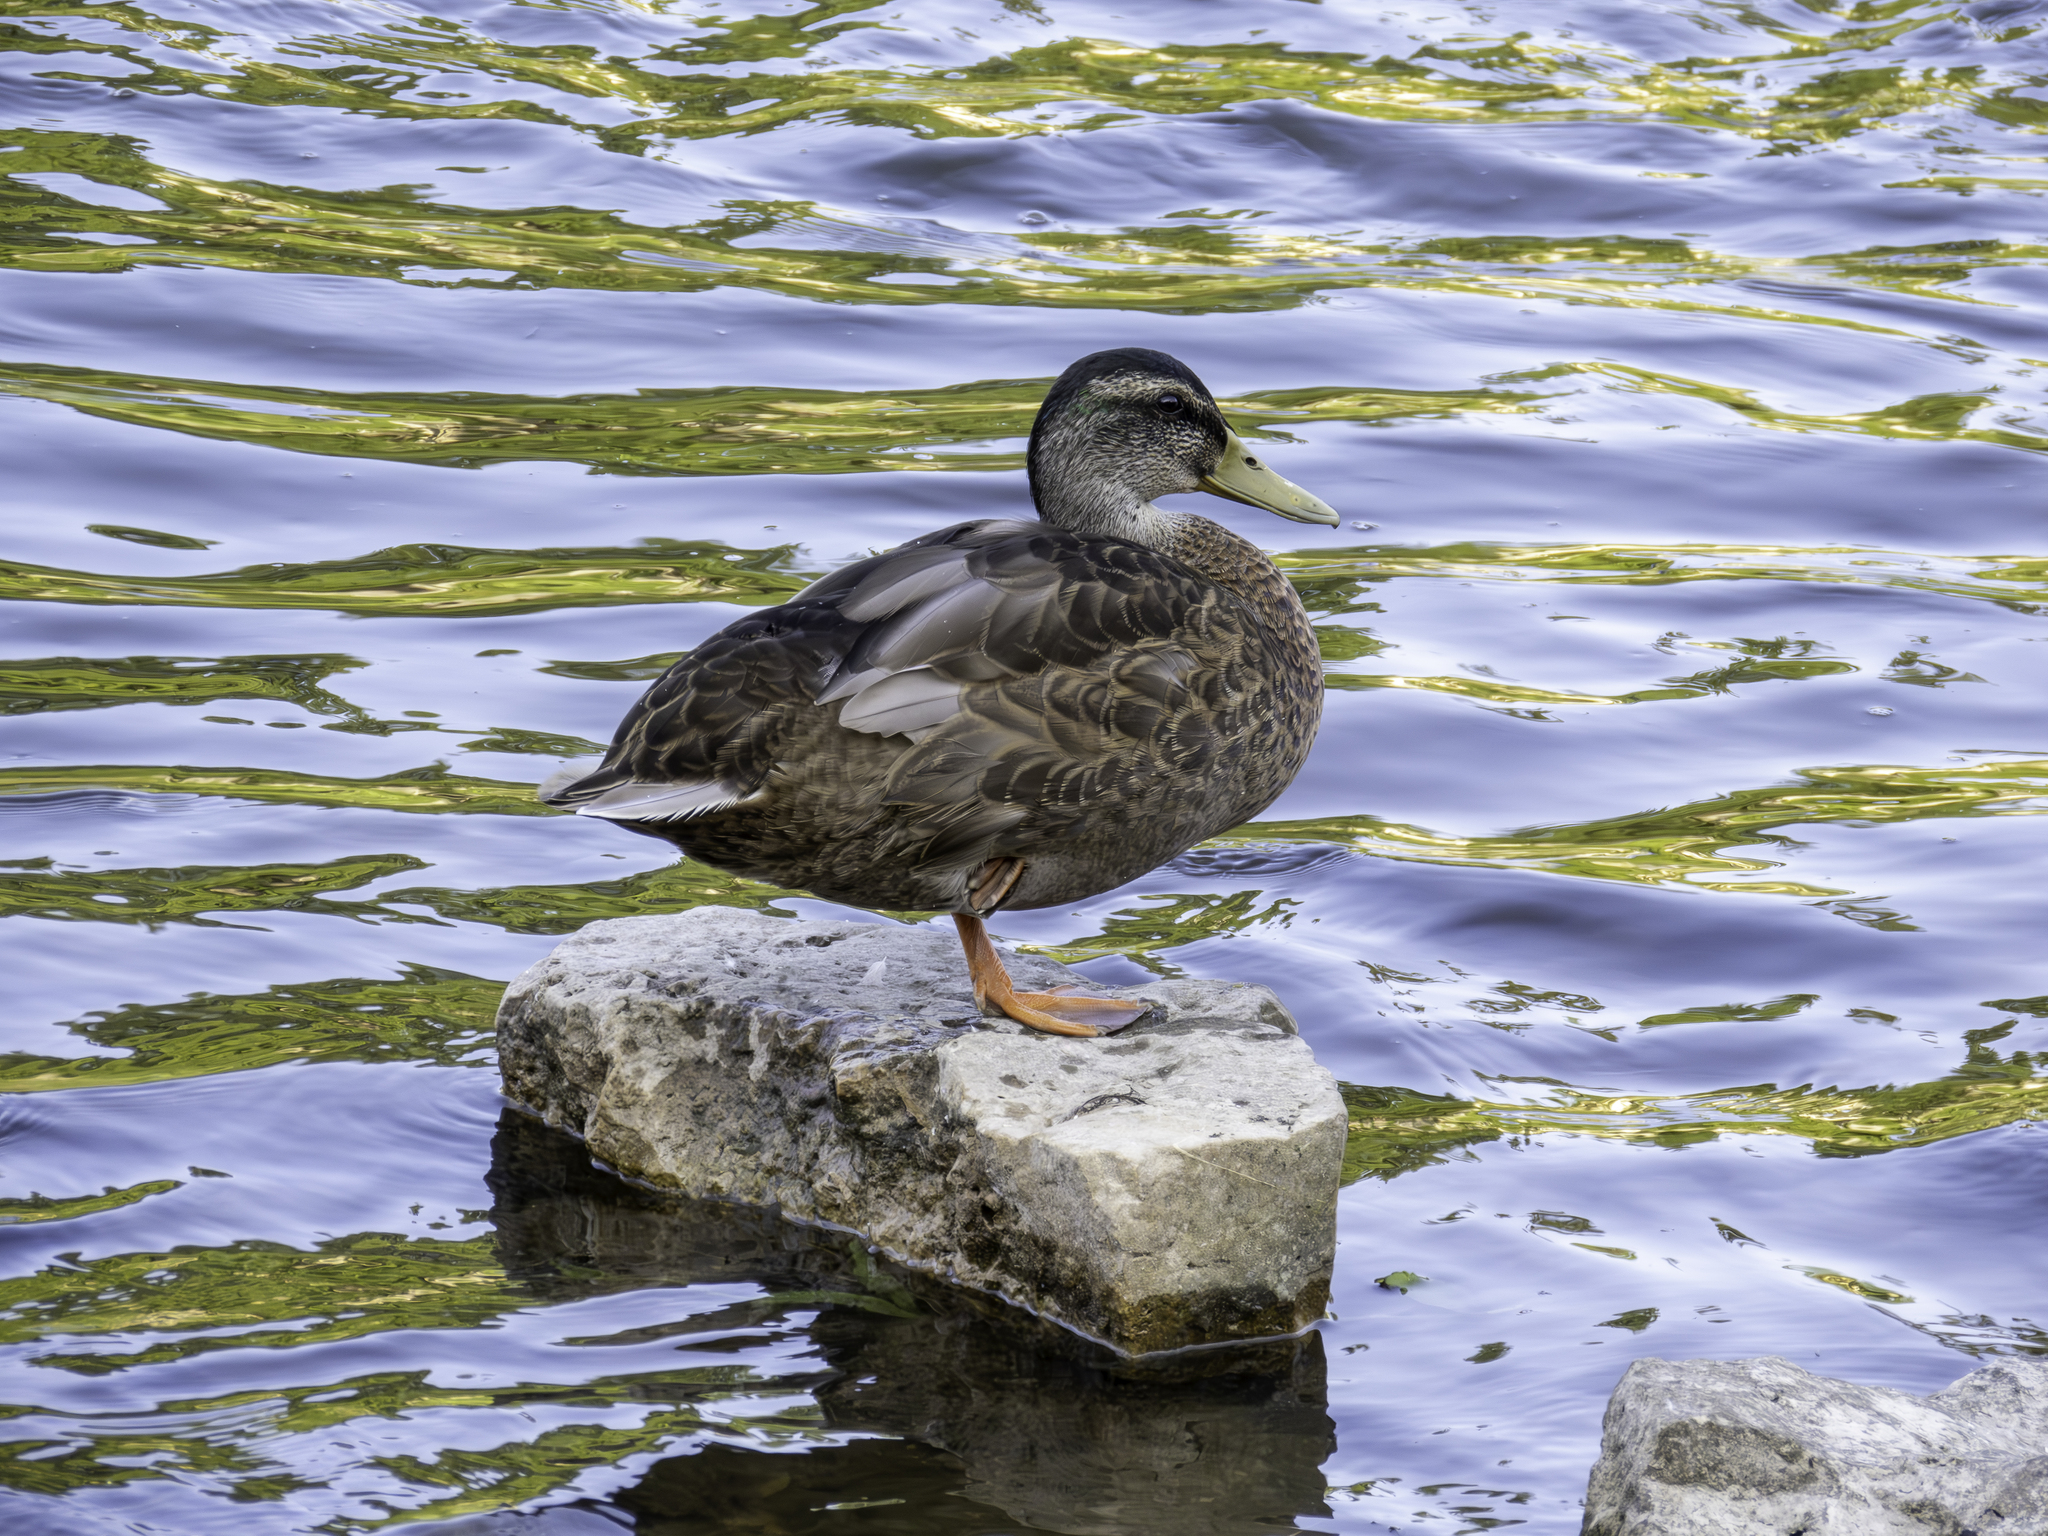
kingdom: Animalia
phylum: Chordata
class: Aves
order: Anseriformes
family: Anatidae
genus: Anas
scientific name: Anas platyrhynchos
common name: Mallard
